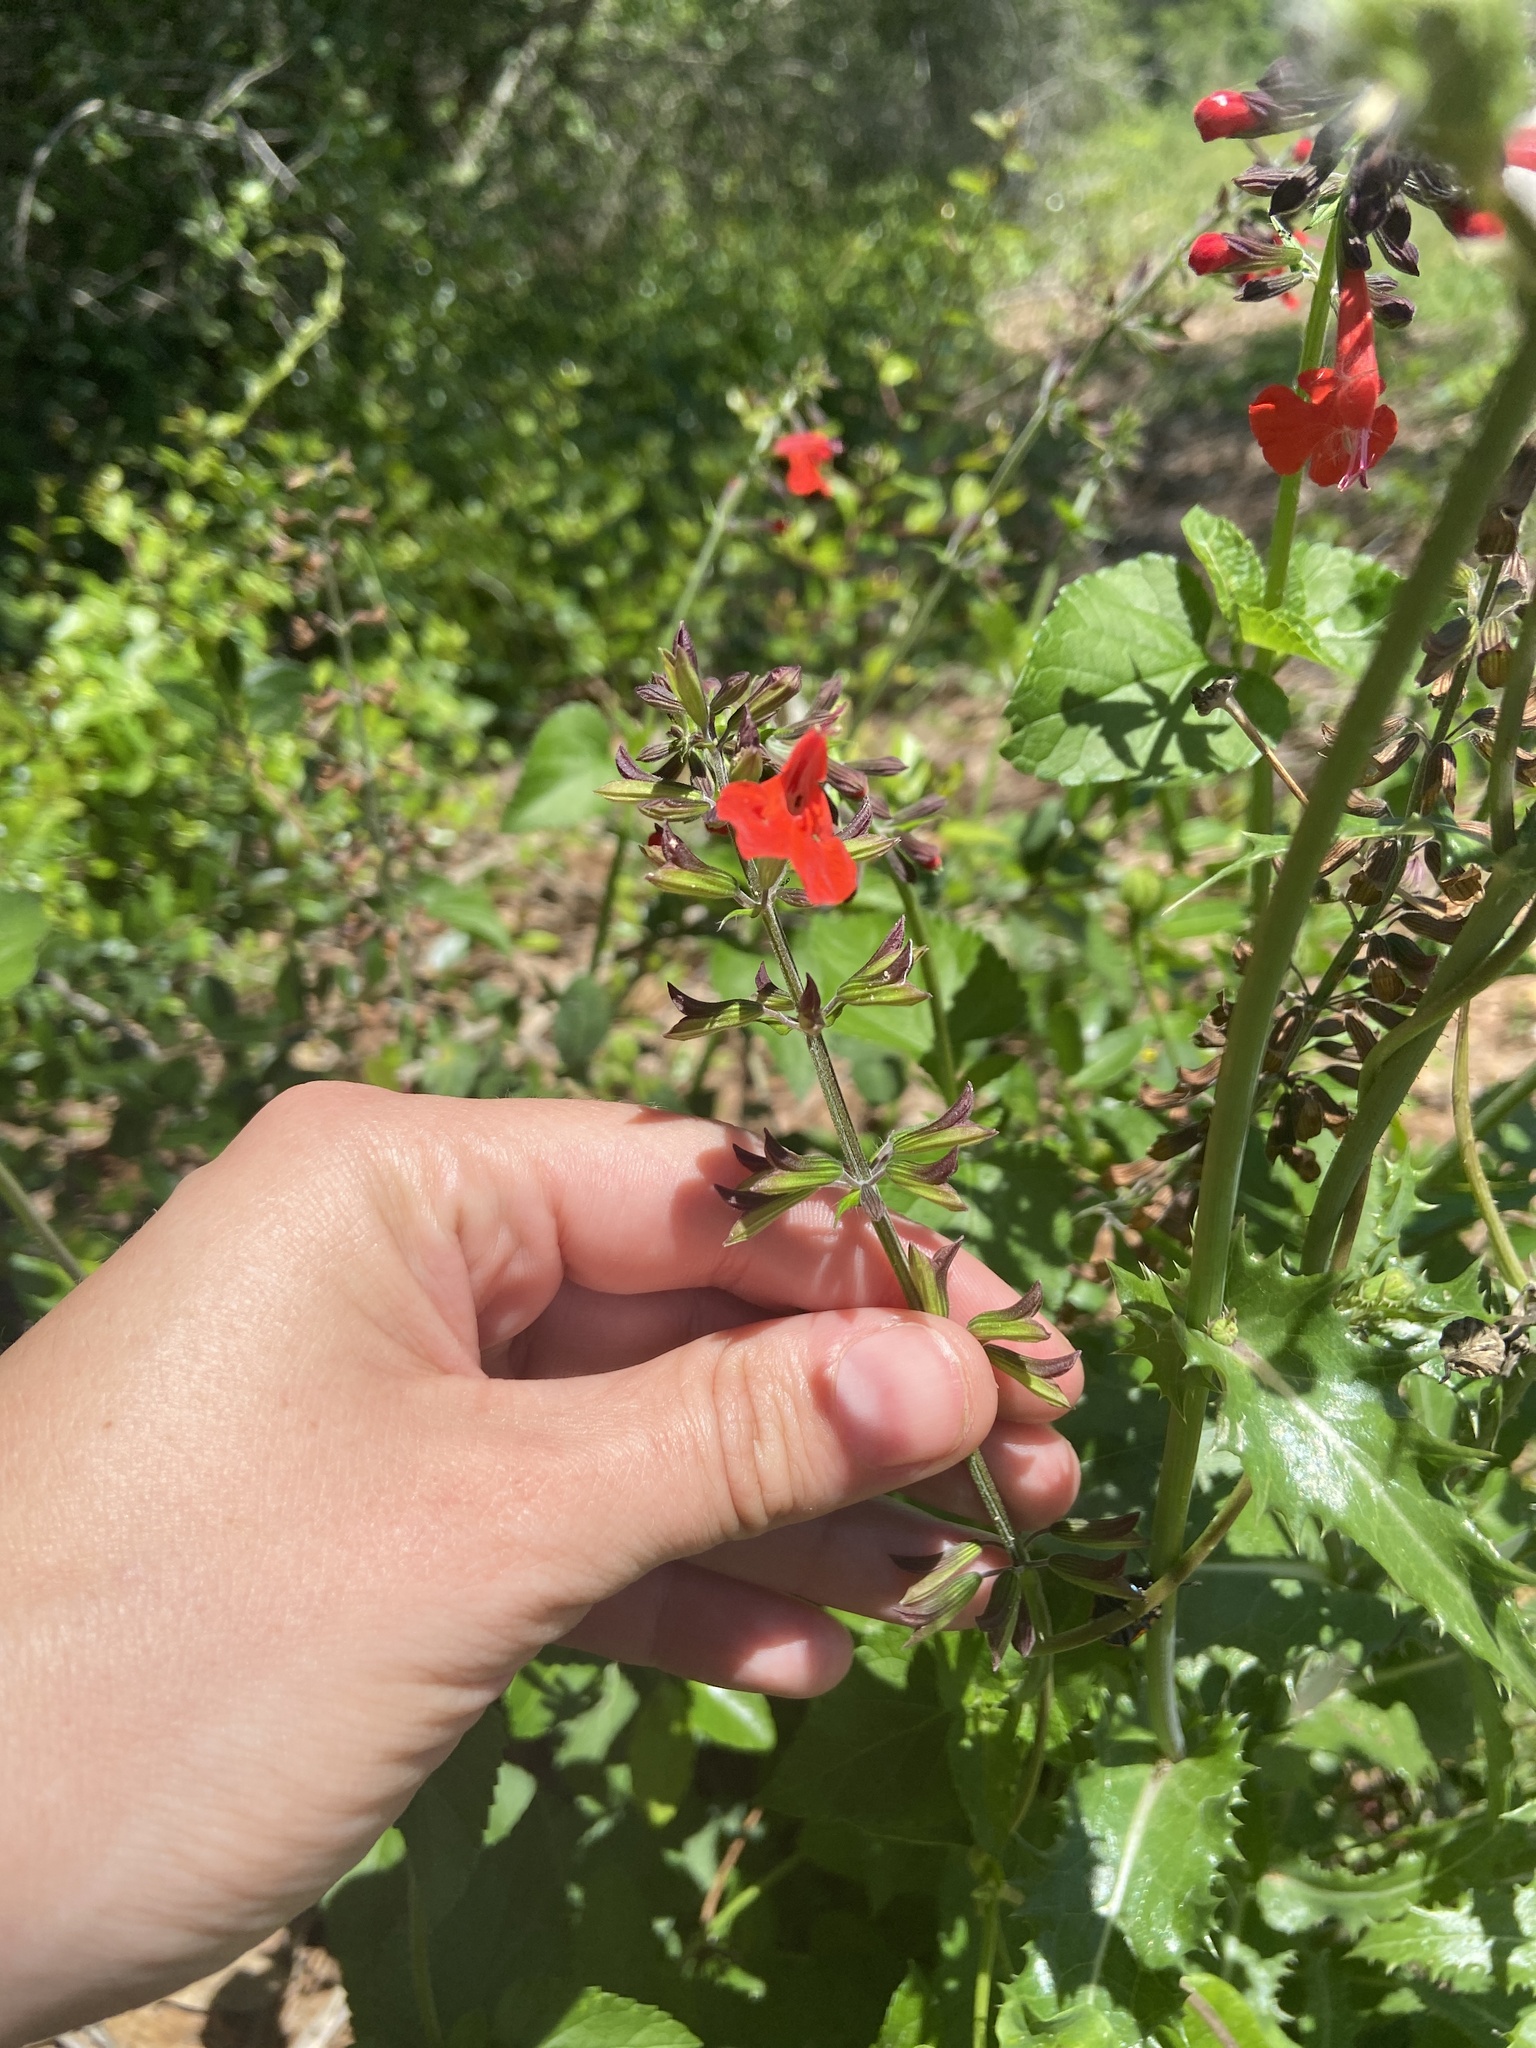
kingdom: Plantae
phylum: Tracheophyta
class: Magnoliopsida
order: Lamiales
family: Lamiaceae
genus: Salvia
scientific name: Salvia coccinea
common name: Blood sage
